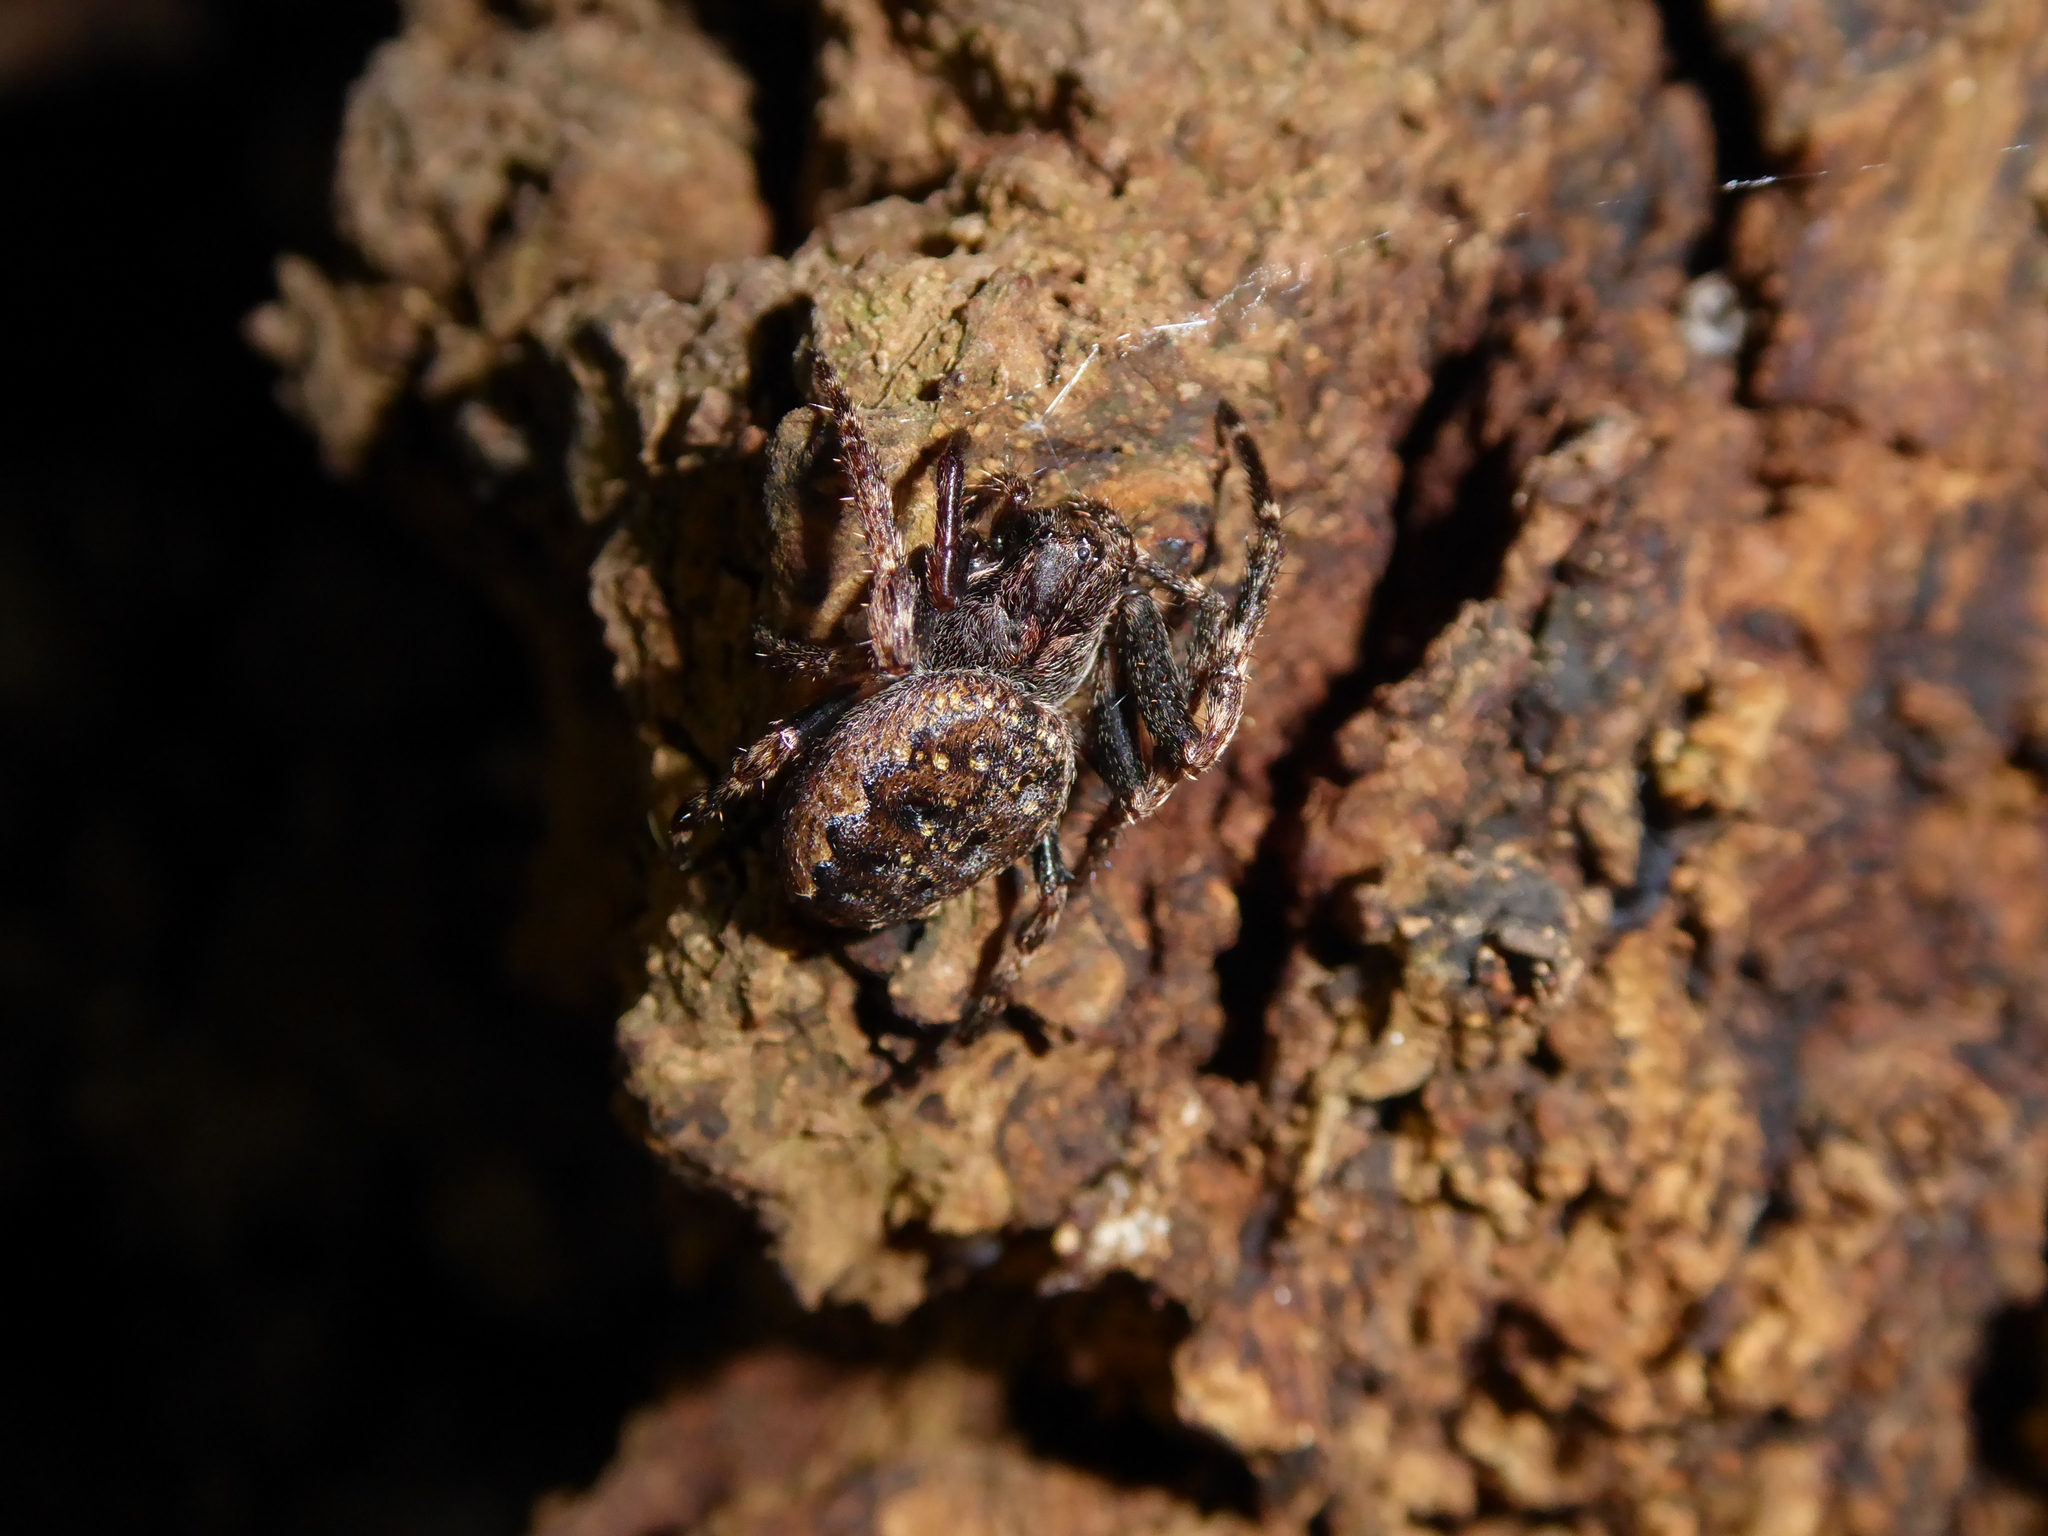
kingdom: Animalia
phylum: Arthropoda
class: Arachnida
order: Araneae
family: Araneidae
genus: Nuctenea
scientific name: Nuctenea umbratica
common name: Toad spider
